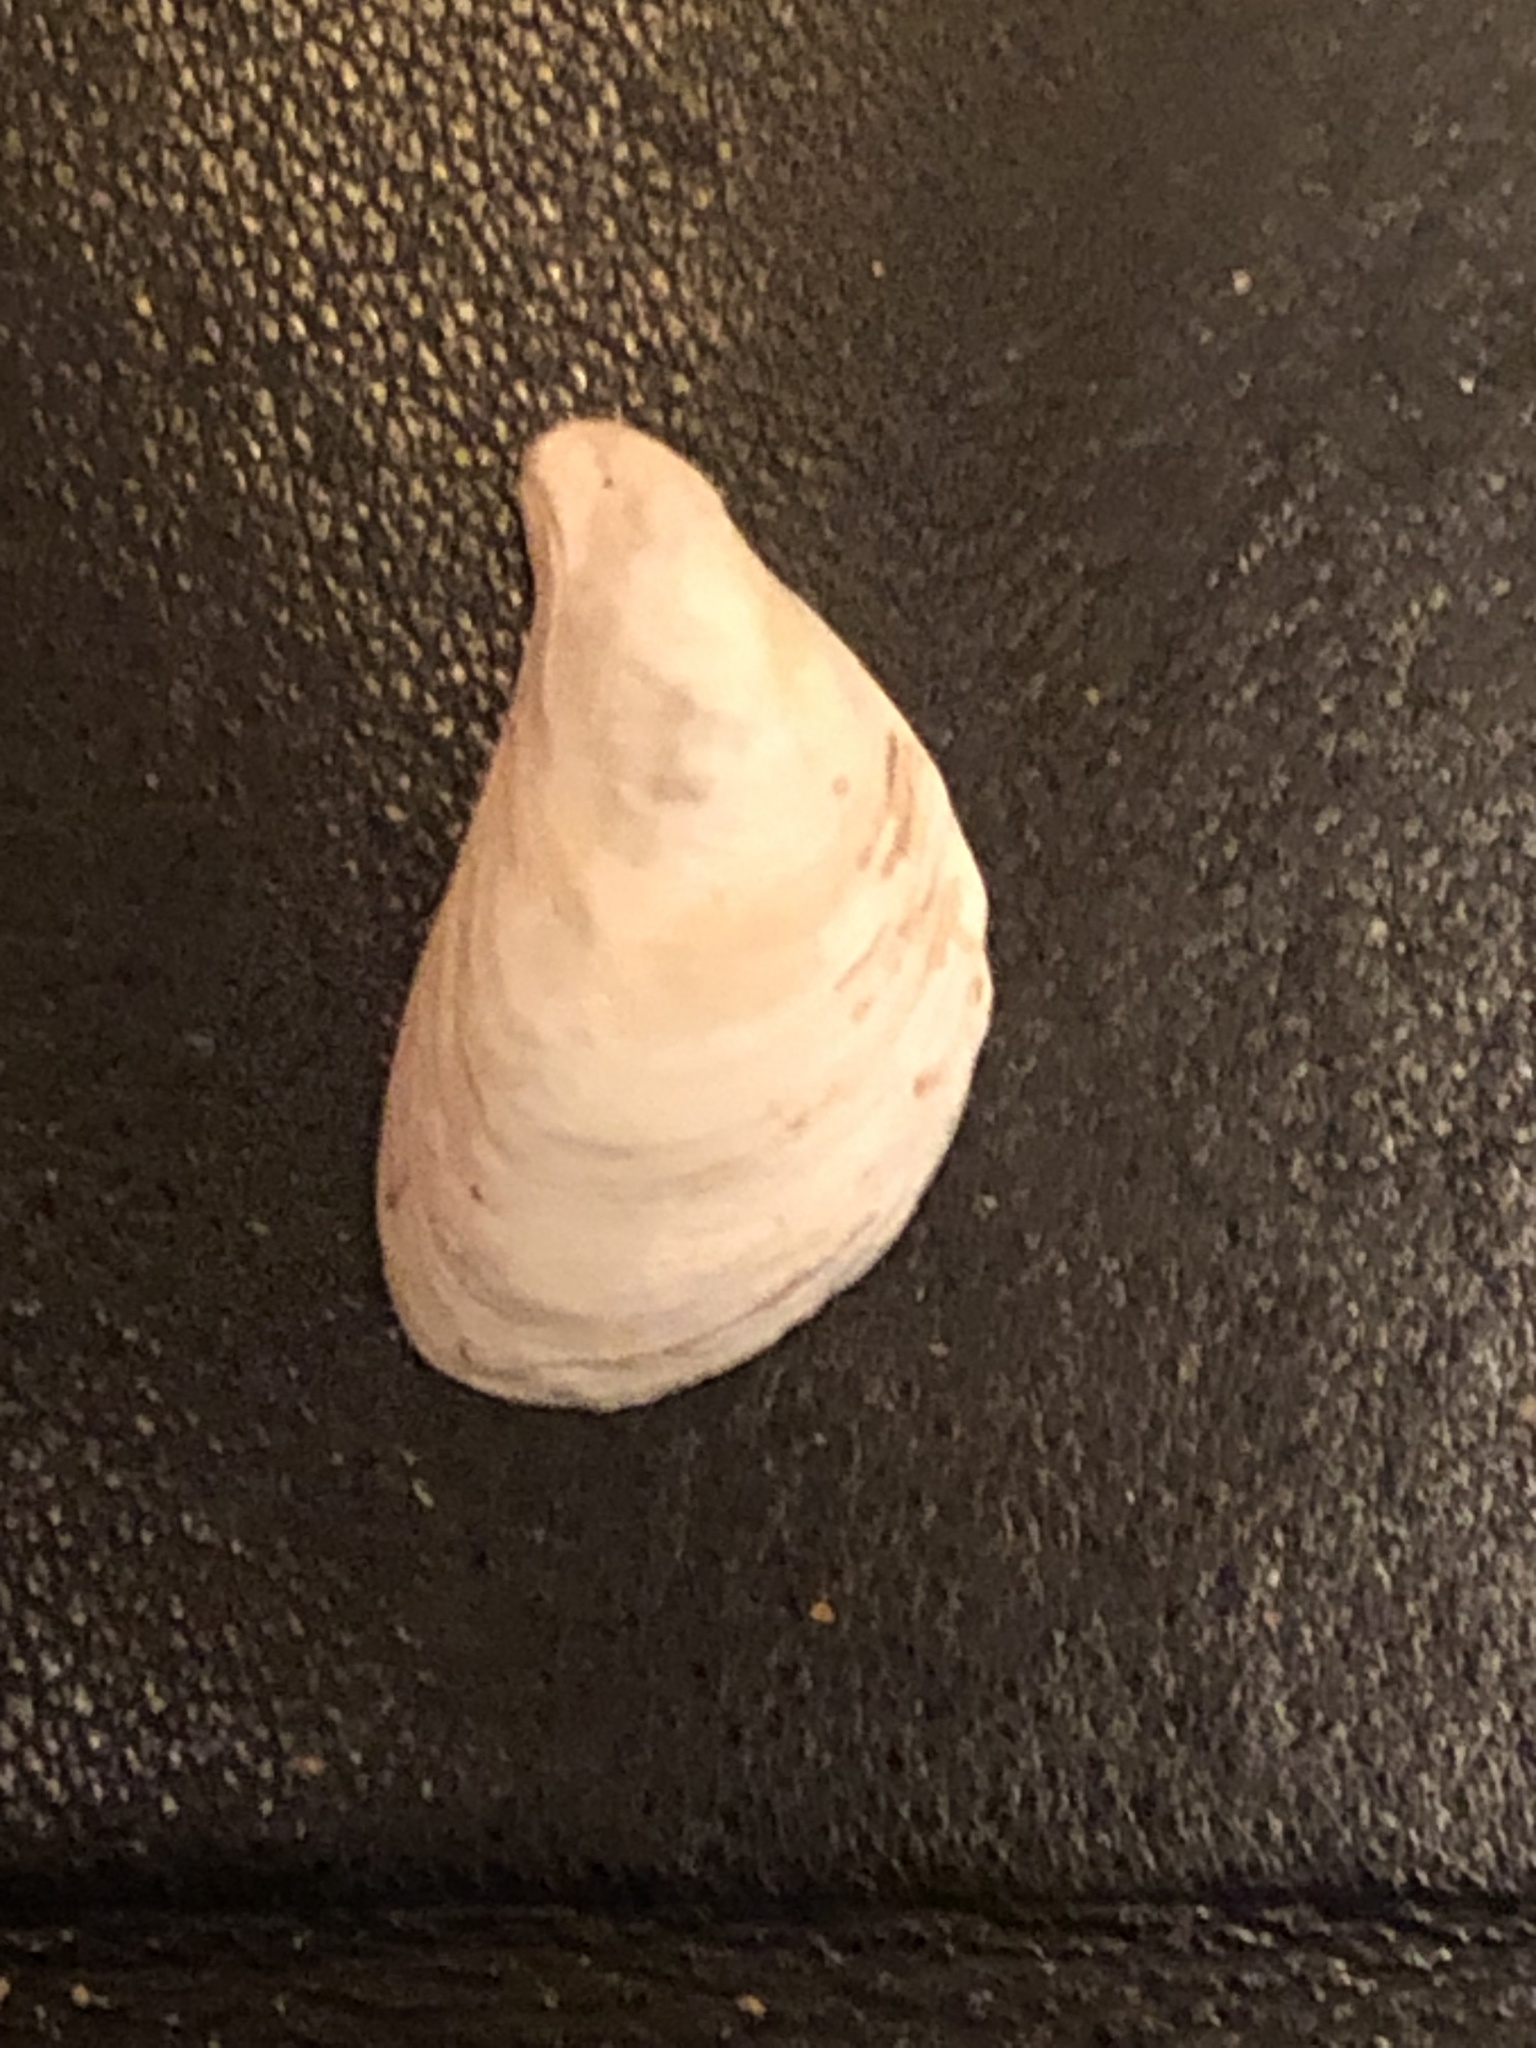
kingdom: Animalia
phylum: Mollusca
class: Bivalvia
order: Myida
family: Dreissenidae
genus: Dreissena
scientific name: Dreissena bugensis
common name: Quagga mussel
